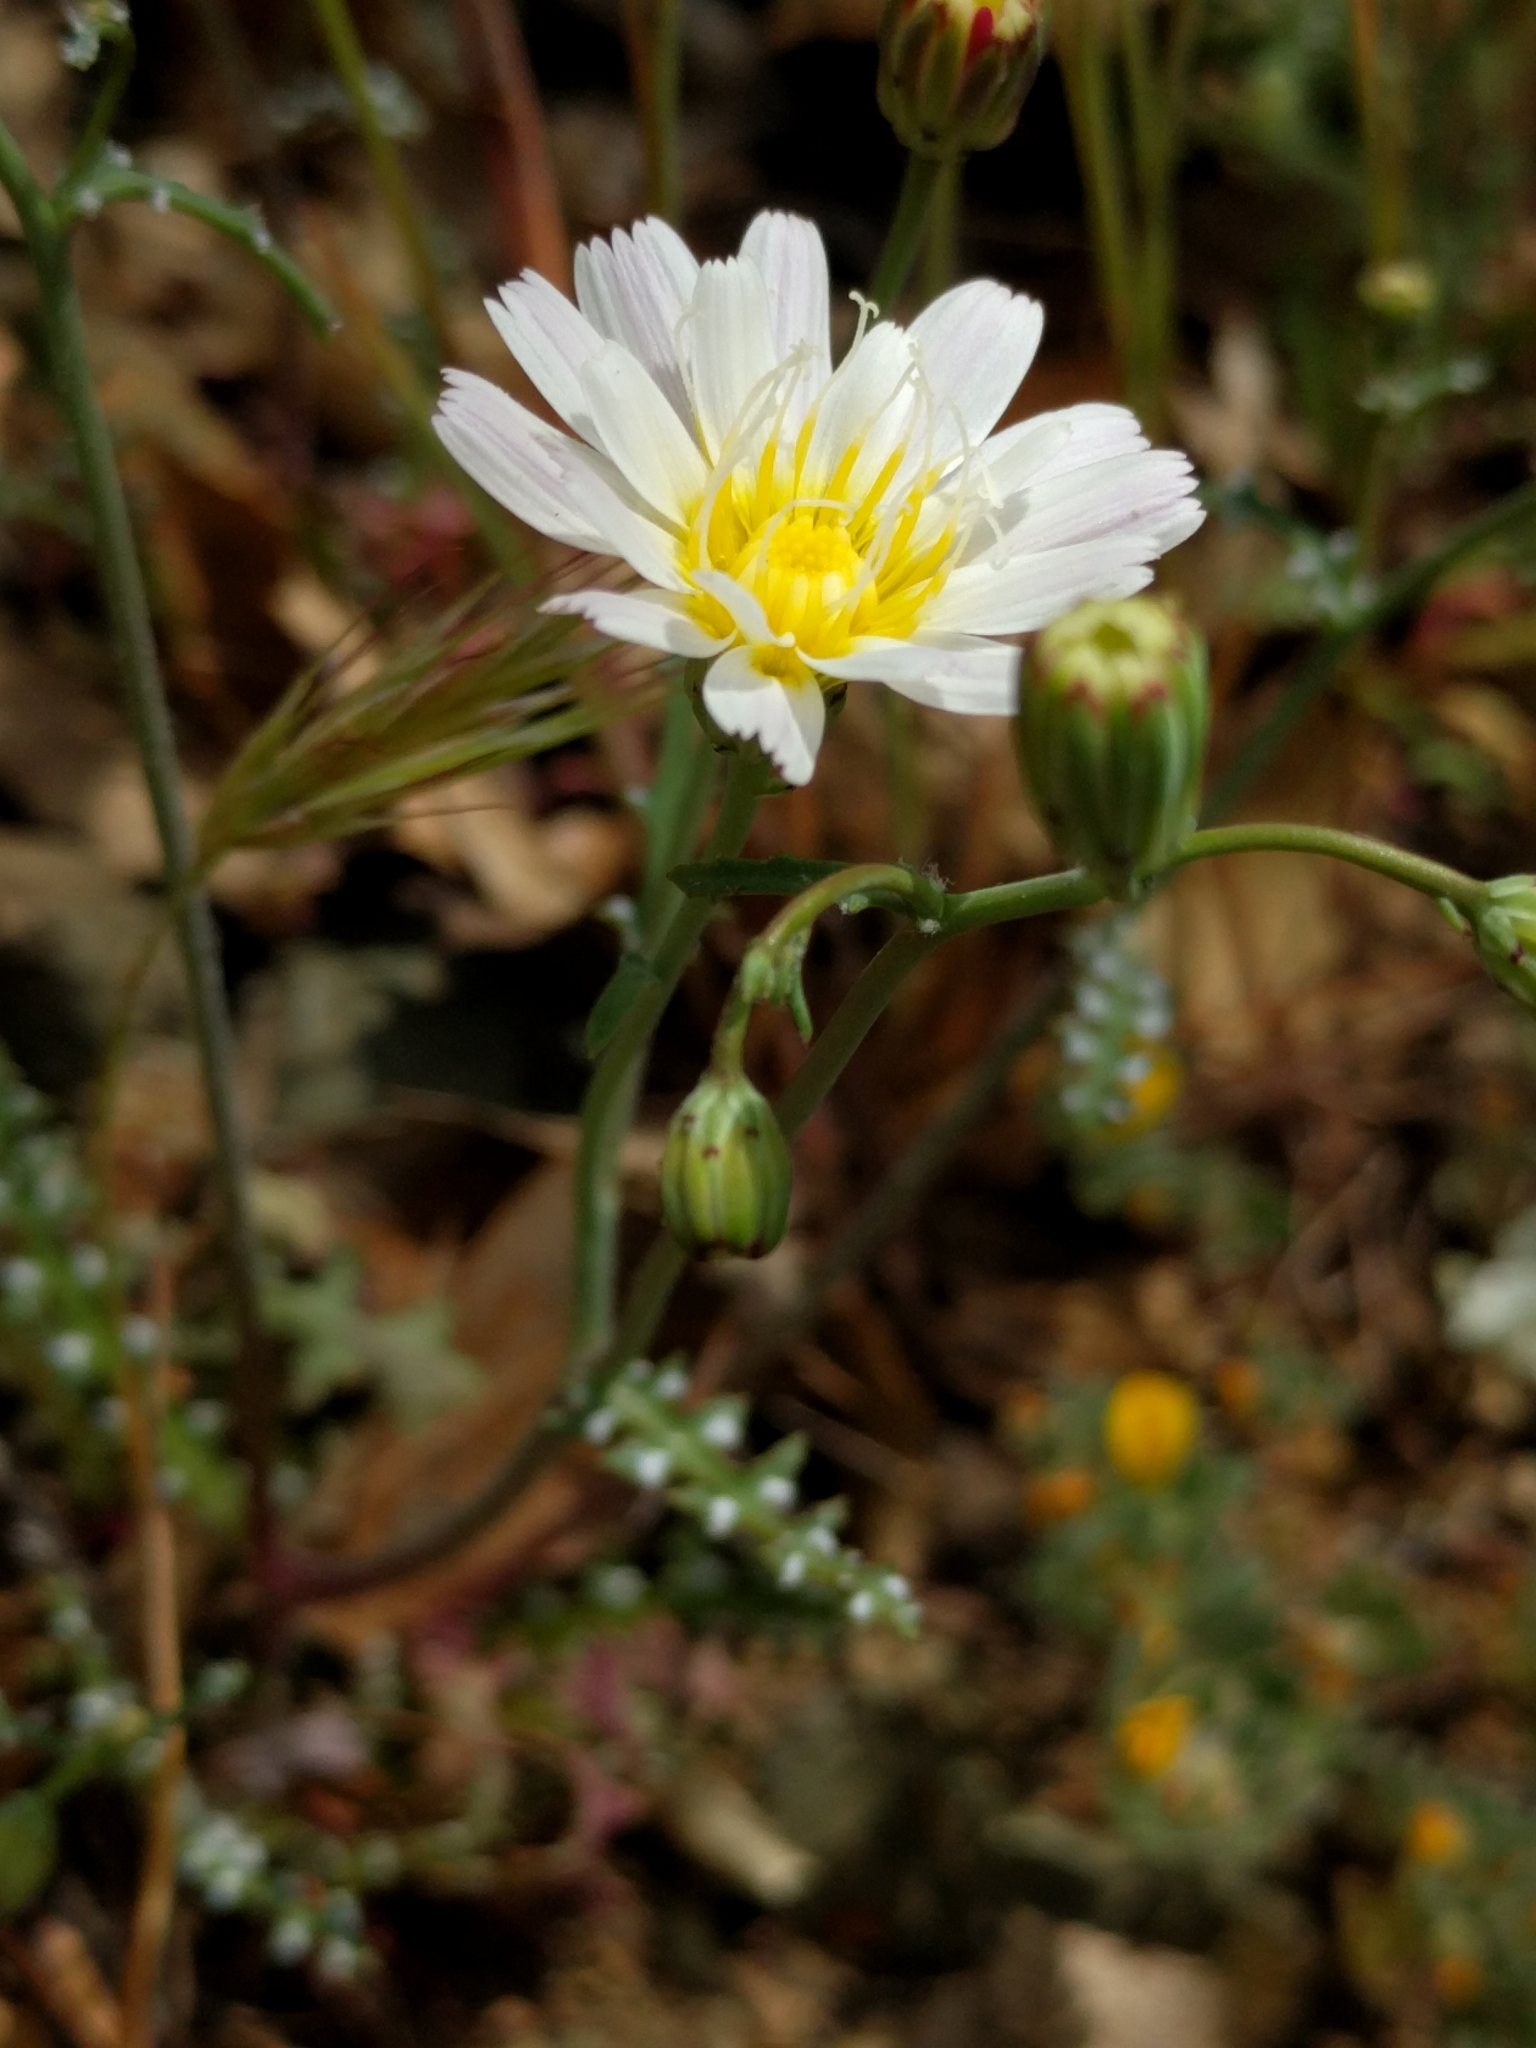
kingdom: Plantae
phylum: Tracheophyta
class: Magnoliopsida
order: Asterales
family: Asteraceae
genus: Malacothrix
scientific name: Malacothrix floccifera
